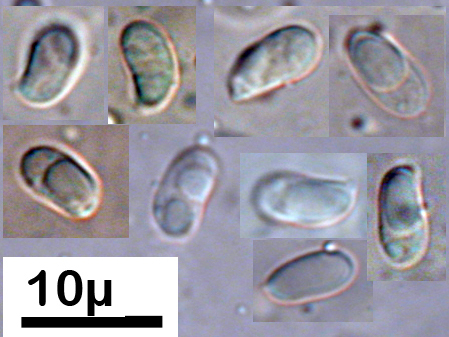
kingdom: Fungi
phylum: Basidiomycota
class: Agaricomycetes
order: Agaricales
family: Pleurotaceae
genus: Hohenbuehelia
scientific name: Hohenbuehelia brunnea
